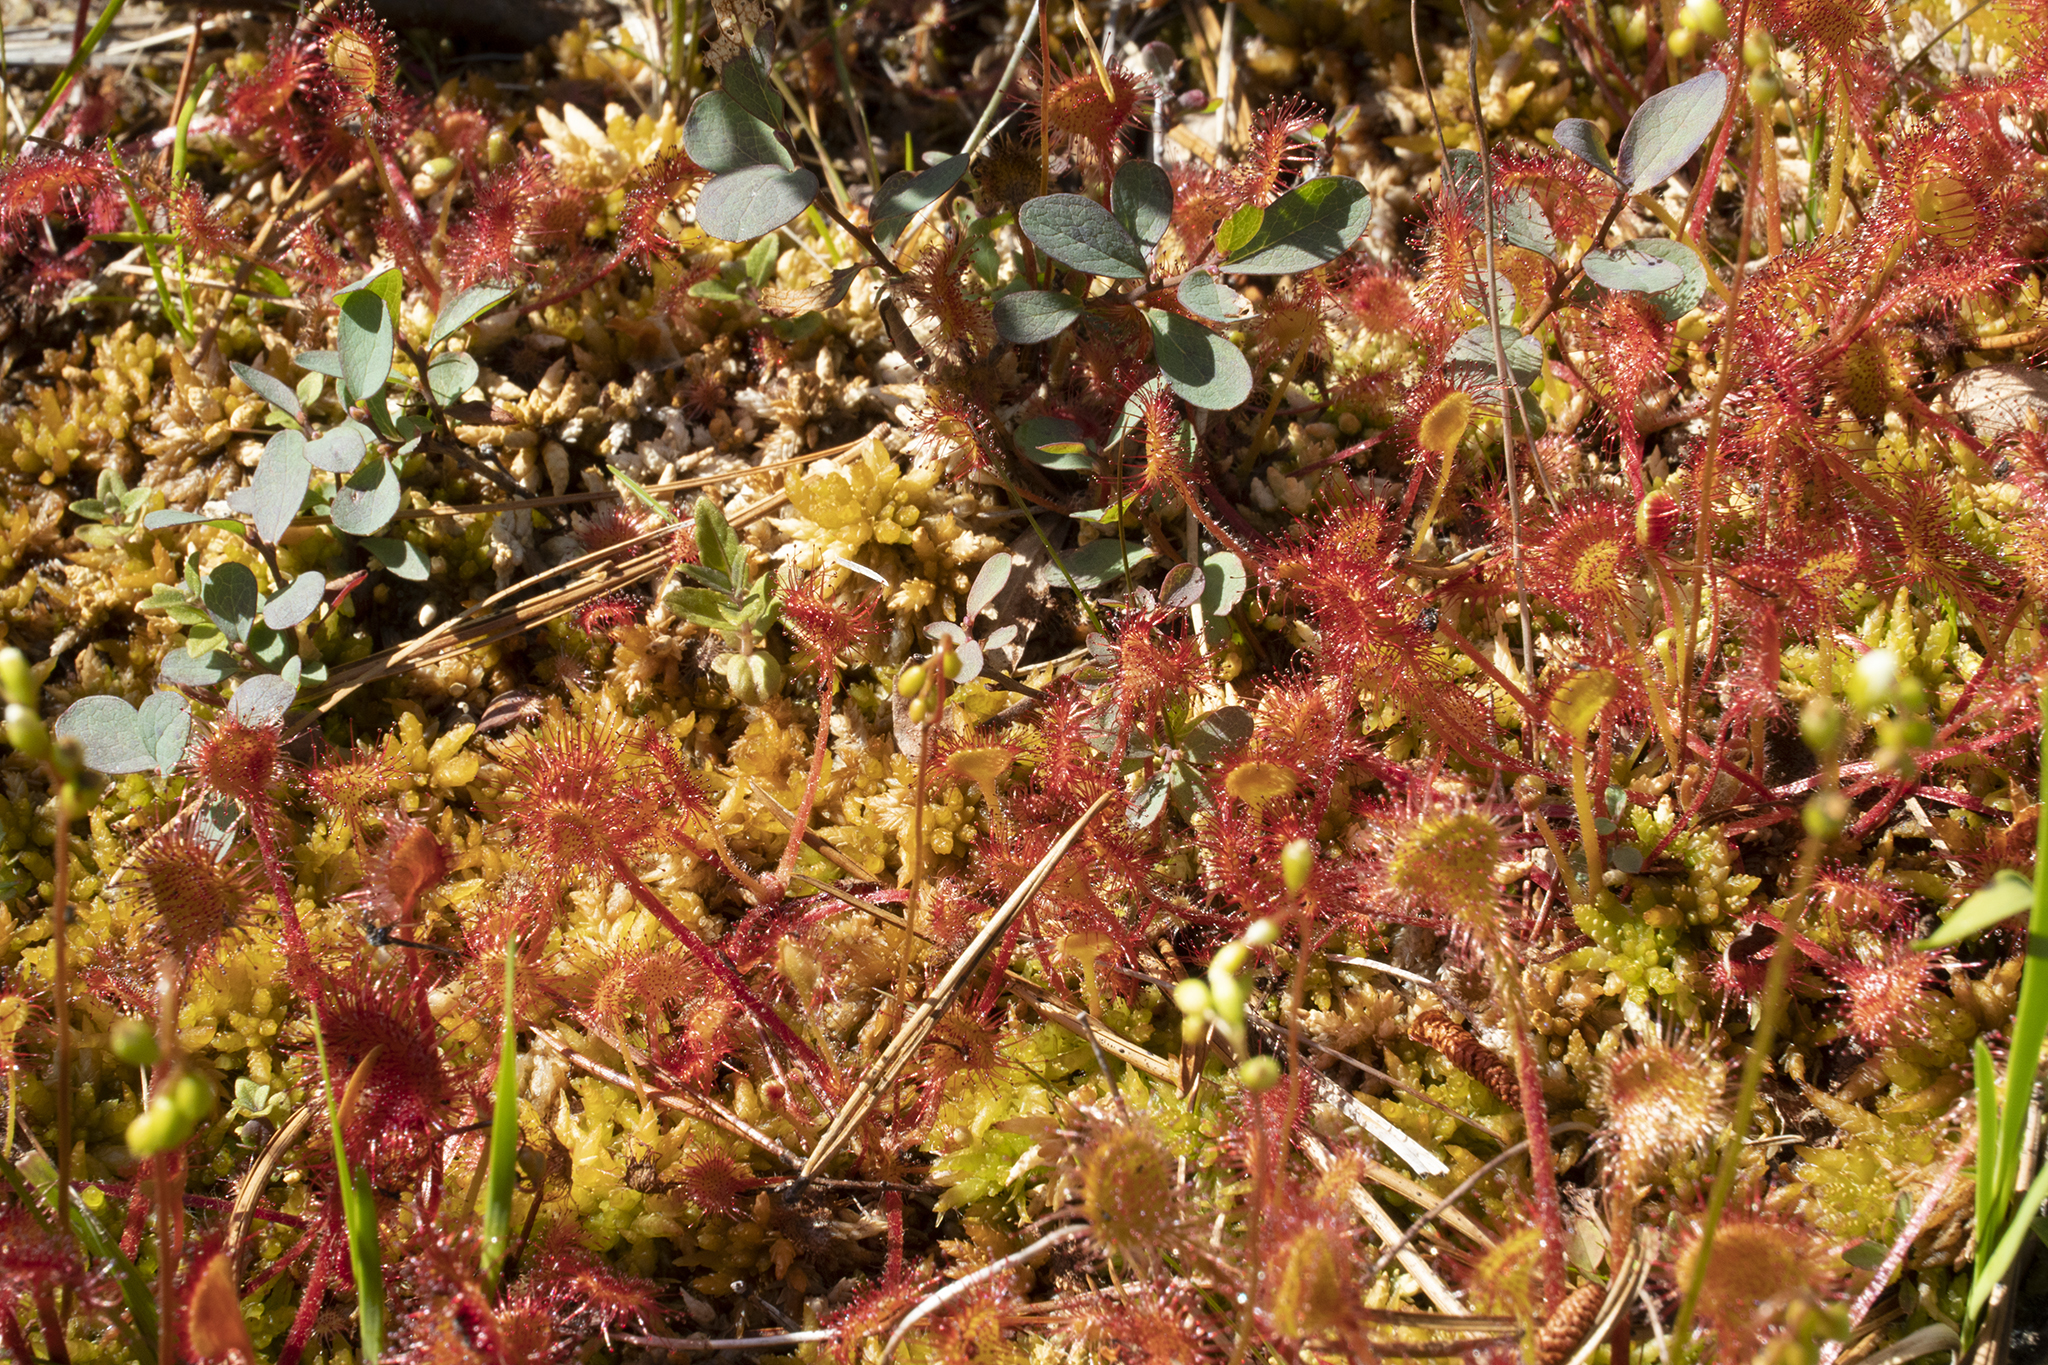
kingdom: Plantae
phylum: Tracheophyta
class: Magnoliopsida
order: Caryophyllales
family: Droseraceae
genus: Drosera
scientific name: Drosera rotundifolia
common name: Round-leaved sundew
